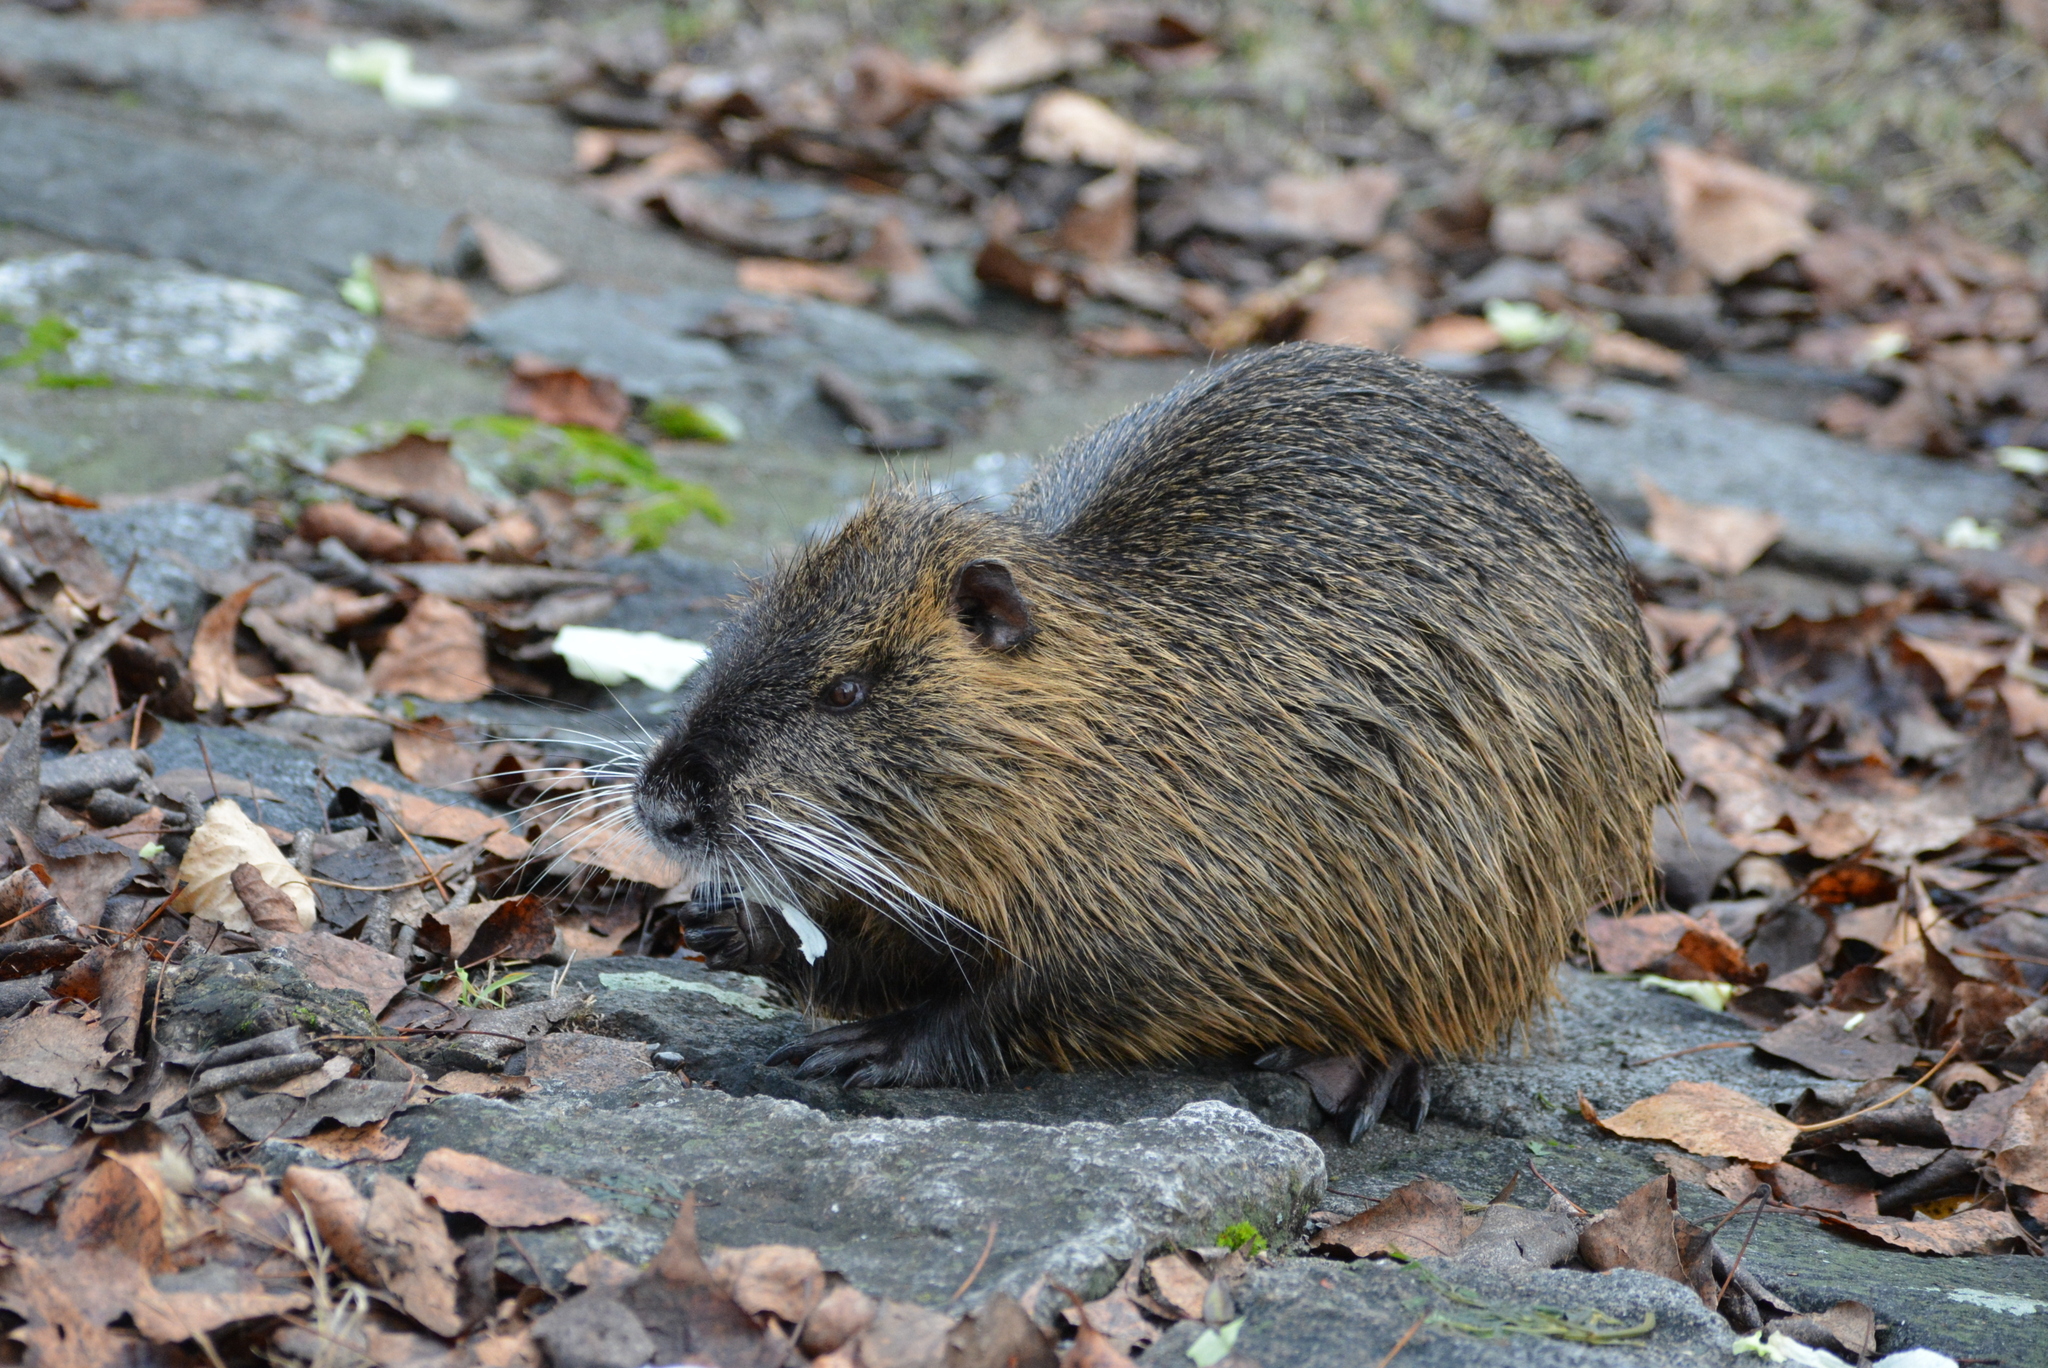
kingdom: Animalia
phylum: Chordata
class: Mammalia
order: Rodentia
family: Myocastoridae
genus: Myocastor
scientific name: Myocastor coypus
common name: Coypu
